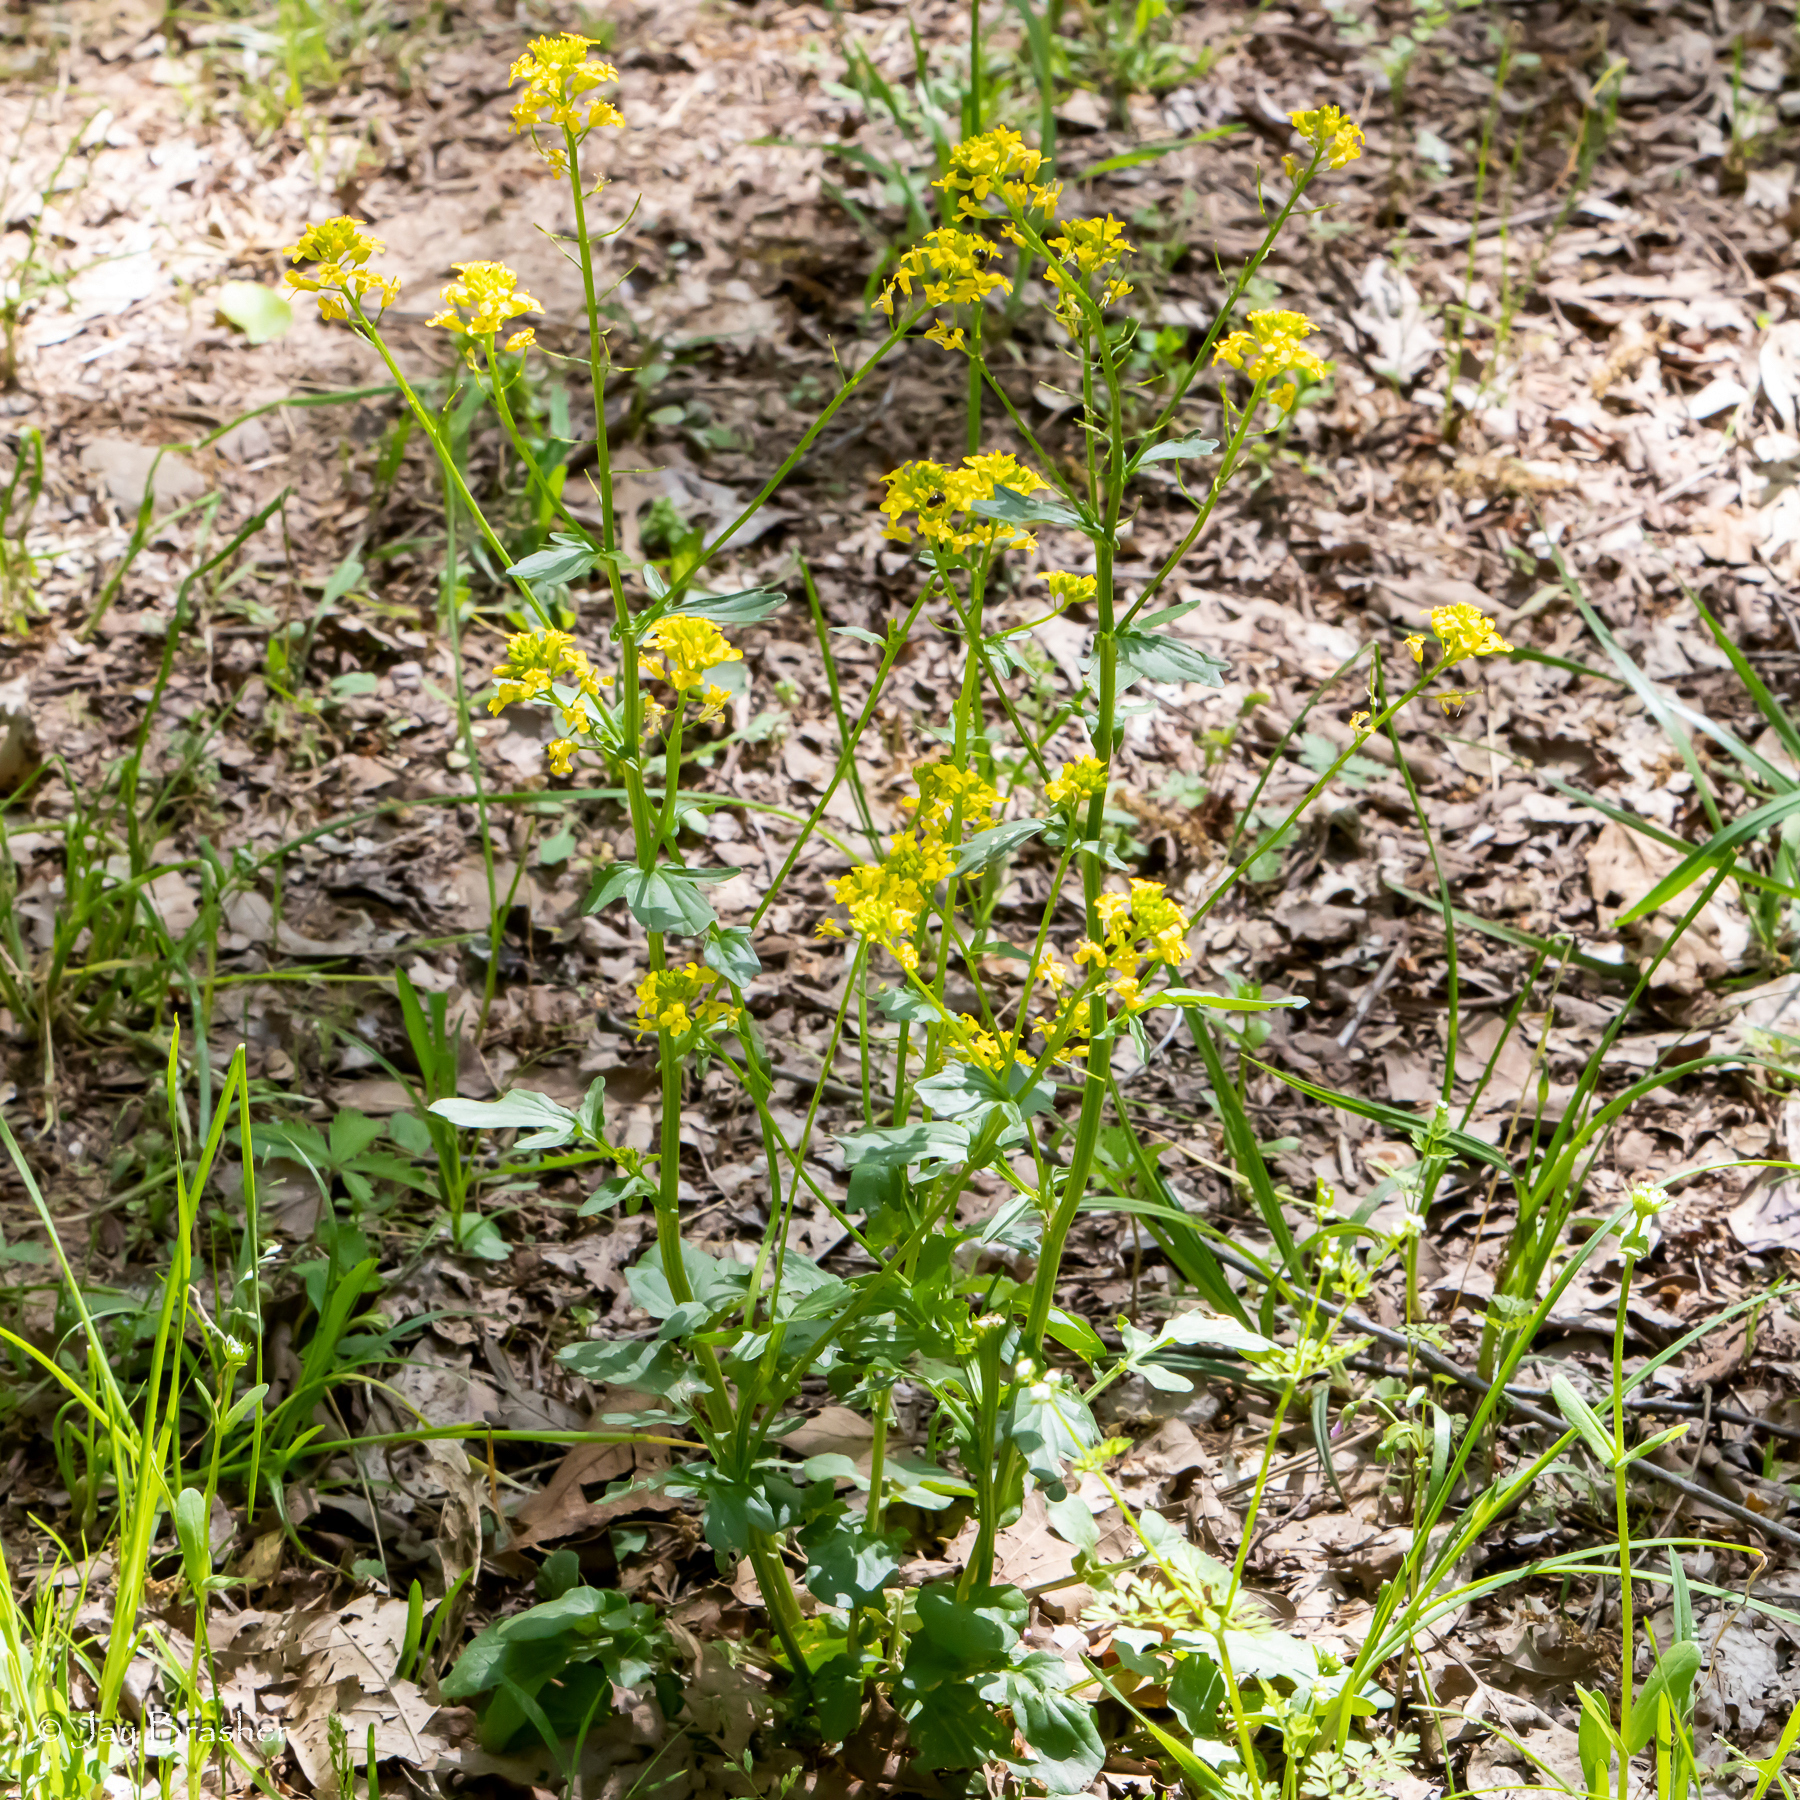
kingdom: Plantae
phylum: Tracheophyta
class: Magnoliopsida
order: Brassicales
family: Brassicaceae
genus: Barbarea
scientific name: Barbarea vulgaris
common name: Cressy-greens
